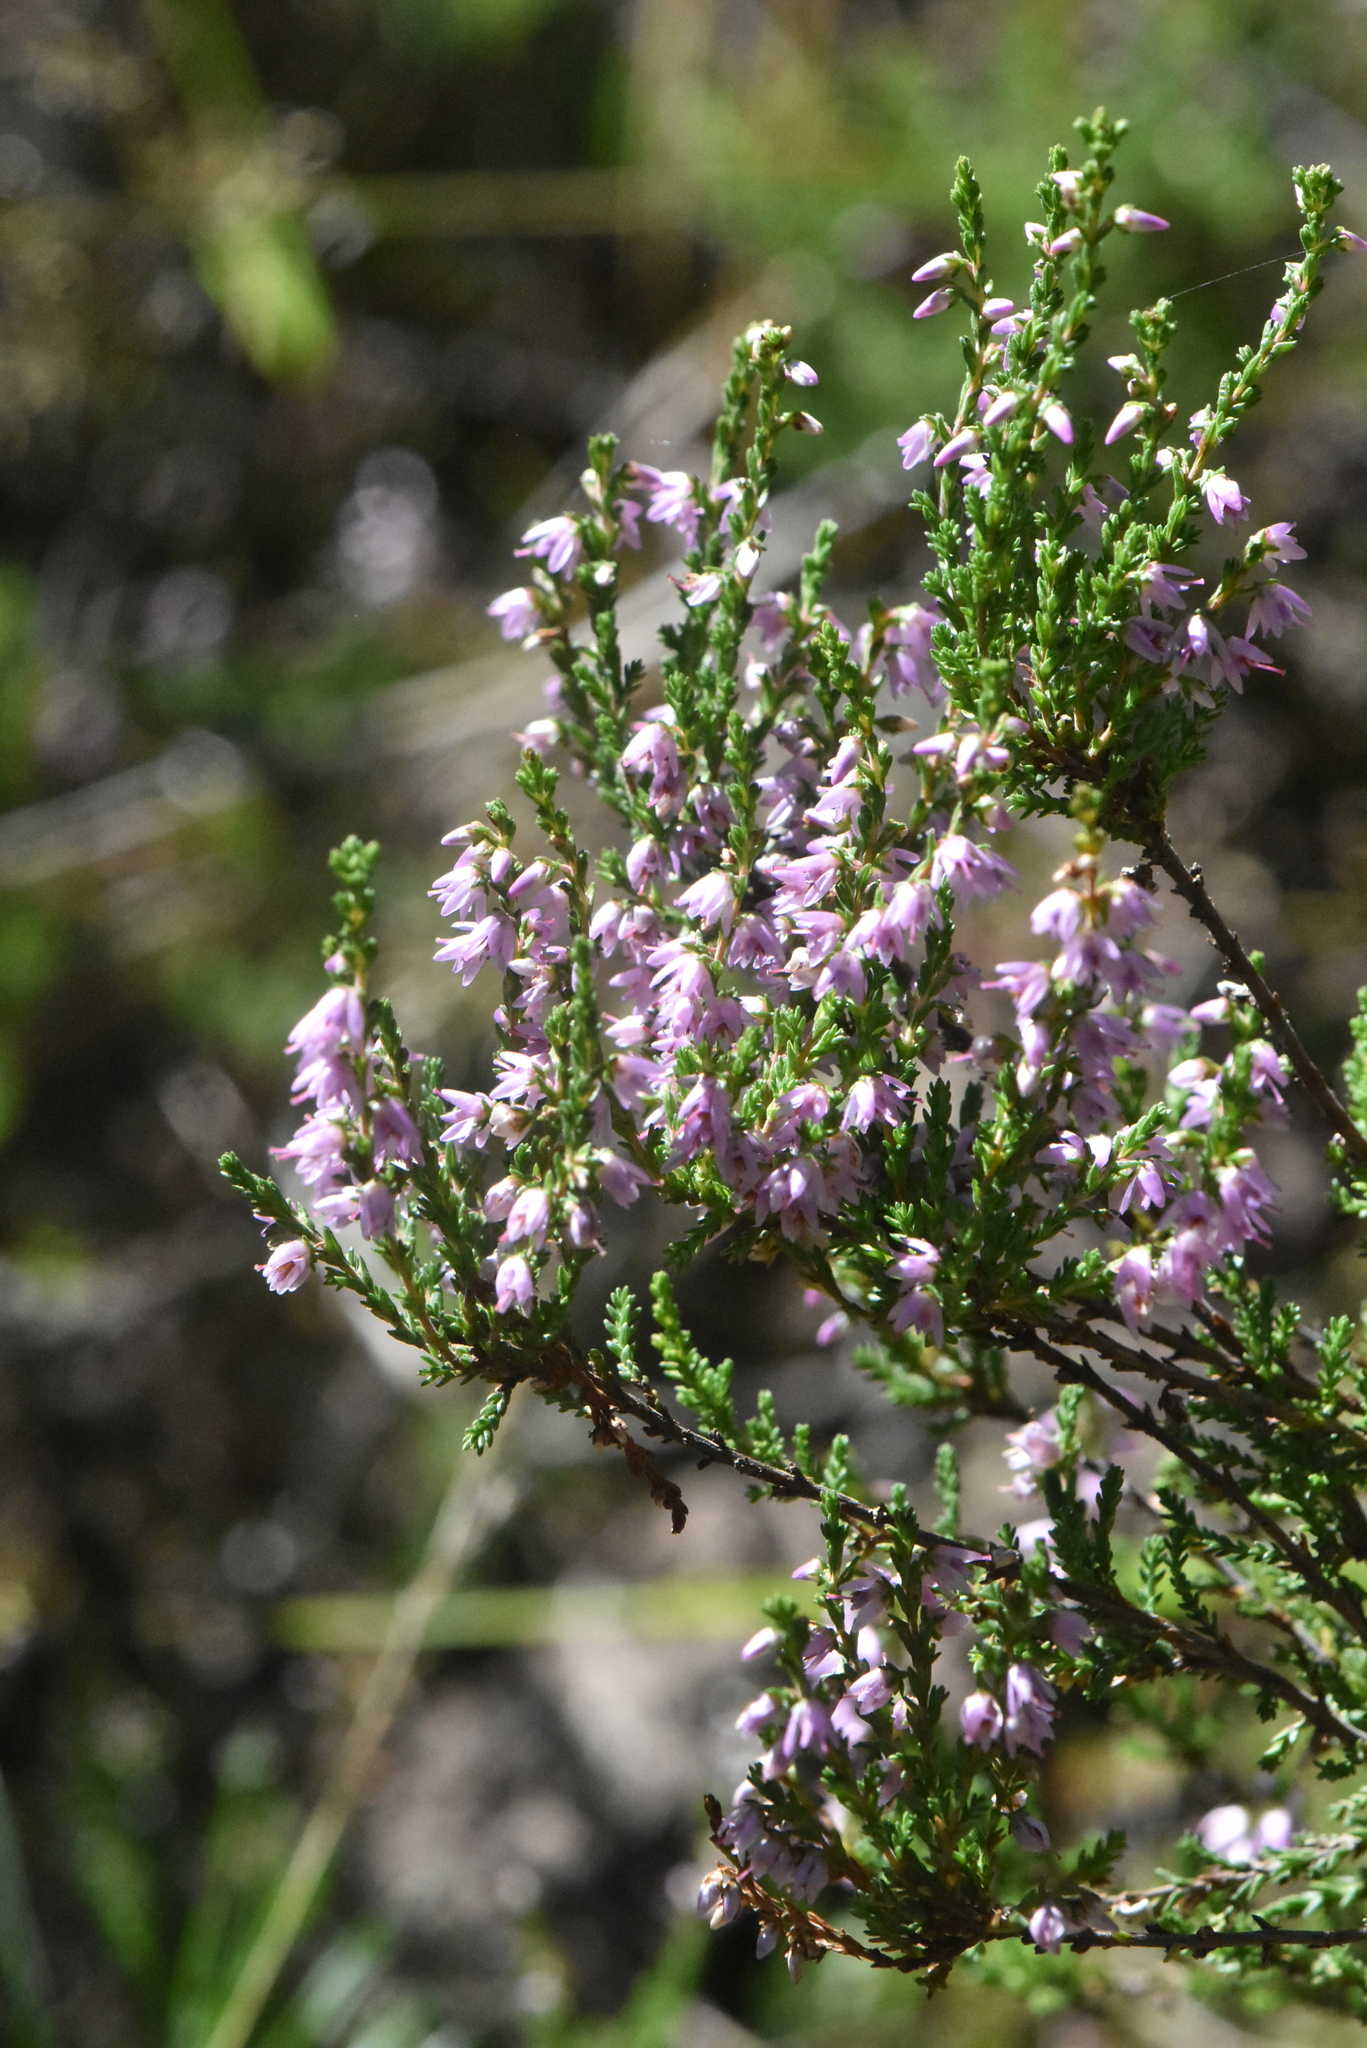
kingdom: Plantae
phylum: Tracheophyta
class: Magnoliopsida
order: Ericales
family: Ericaceae
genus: Calluna
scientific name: Calluna vulgaris
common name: Heather
